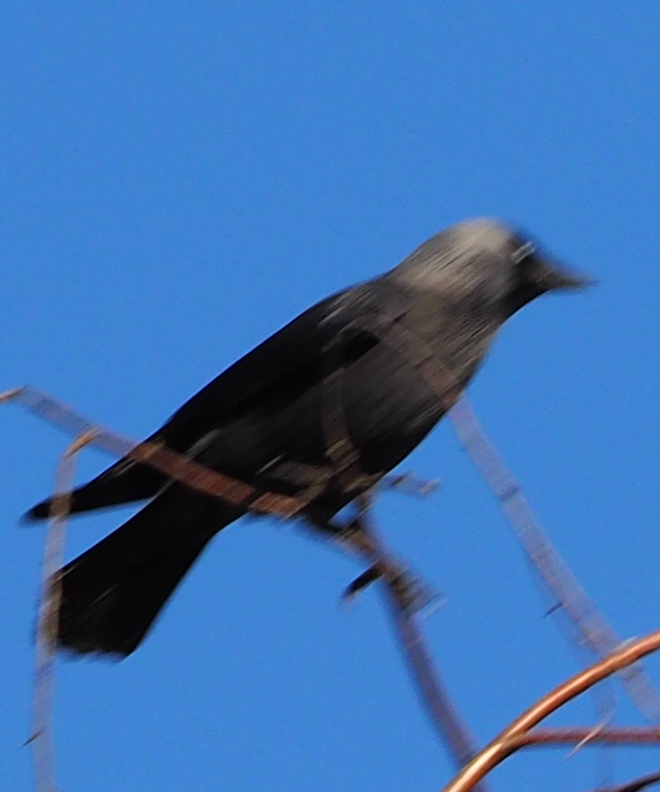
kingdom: Animalia
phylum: Chordata
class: Aves
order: Passeriformes
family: Corvidae
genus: Coloeus
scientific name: Coloeus monedula
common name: Western jackdaw
